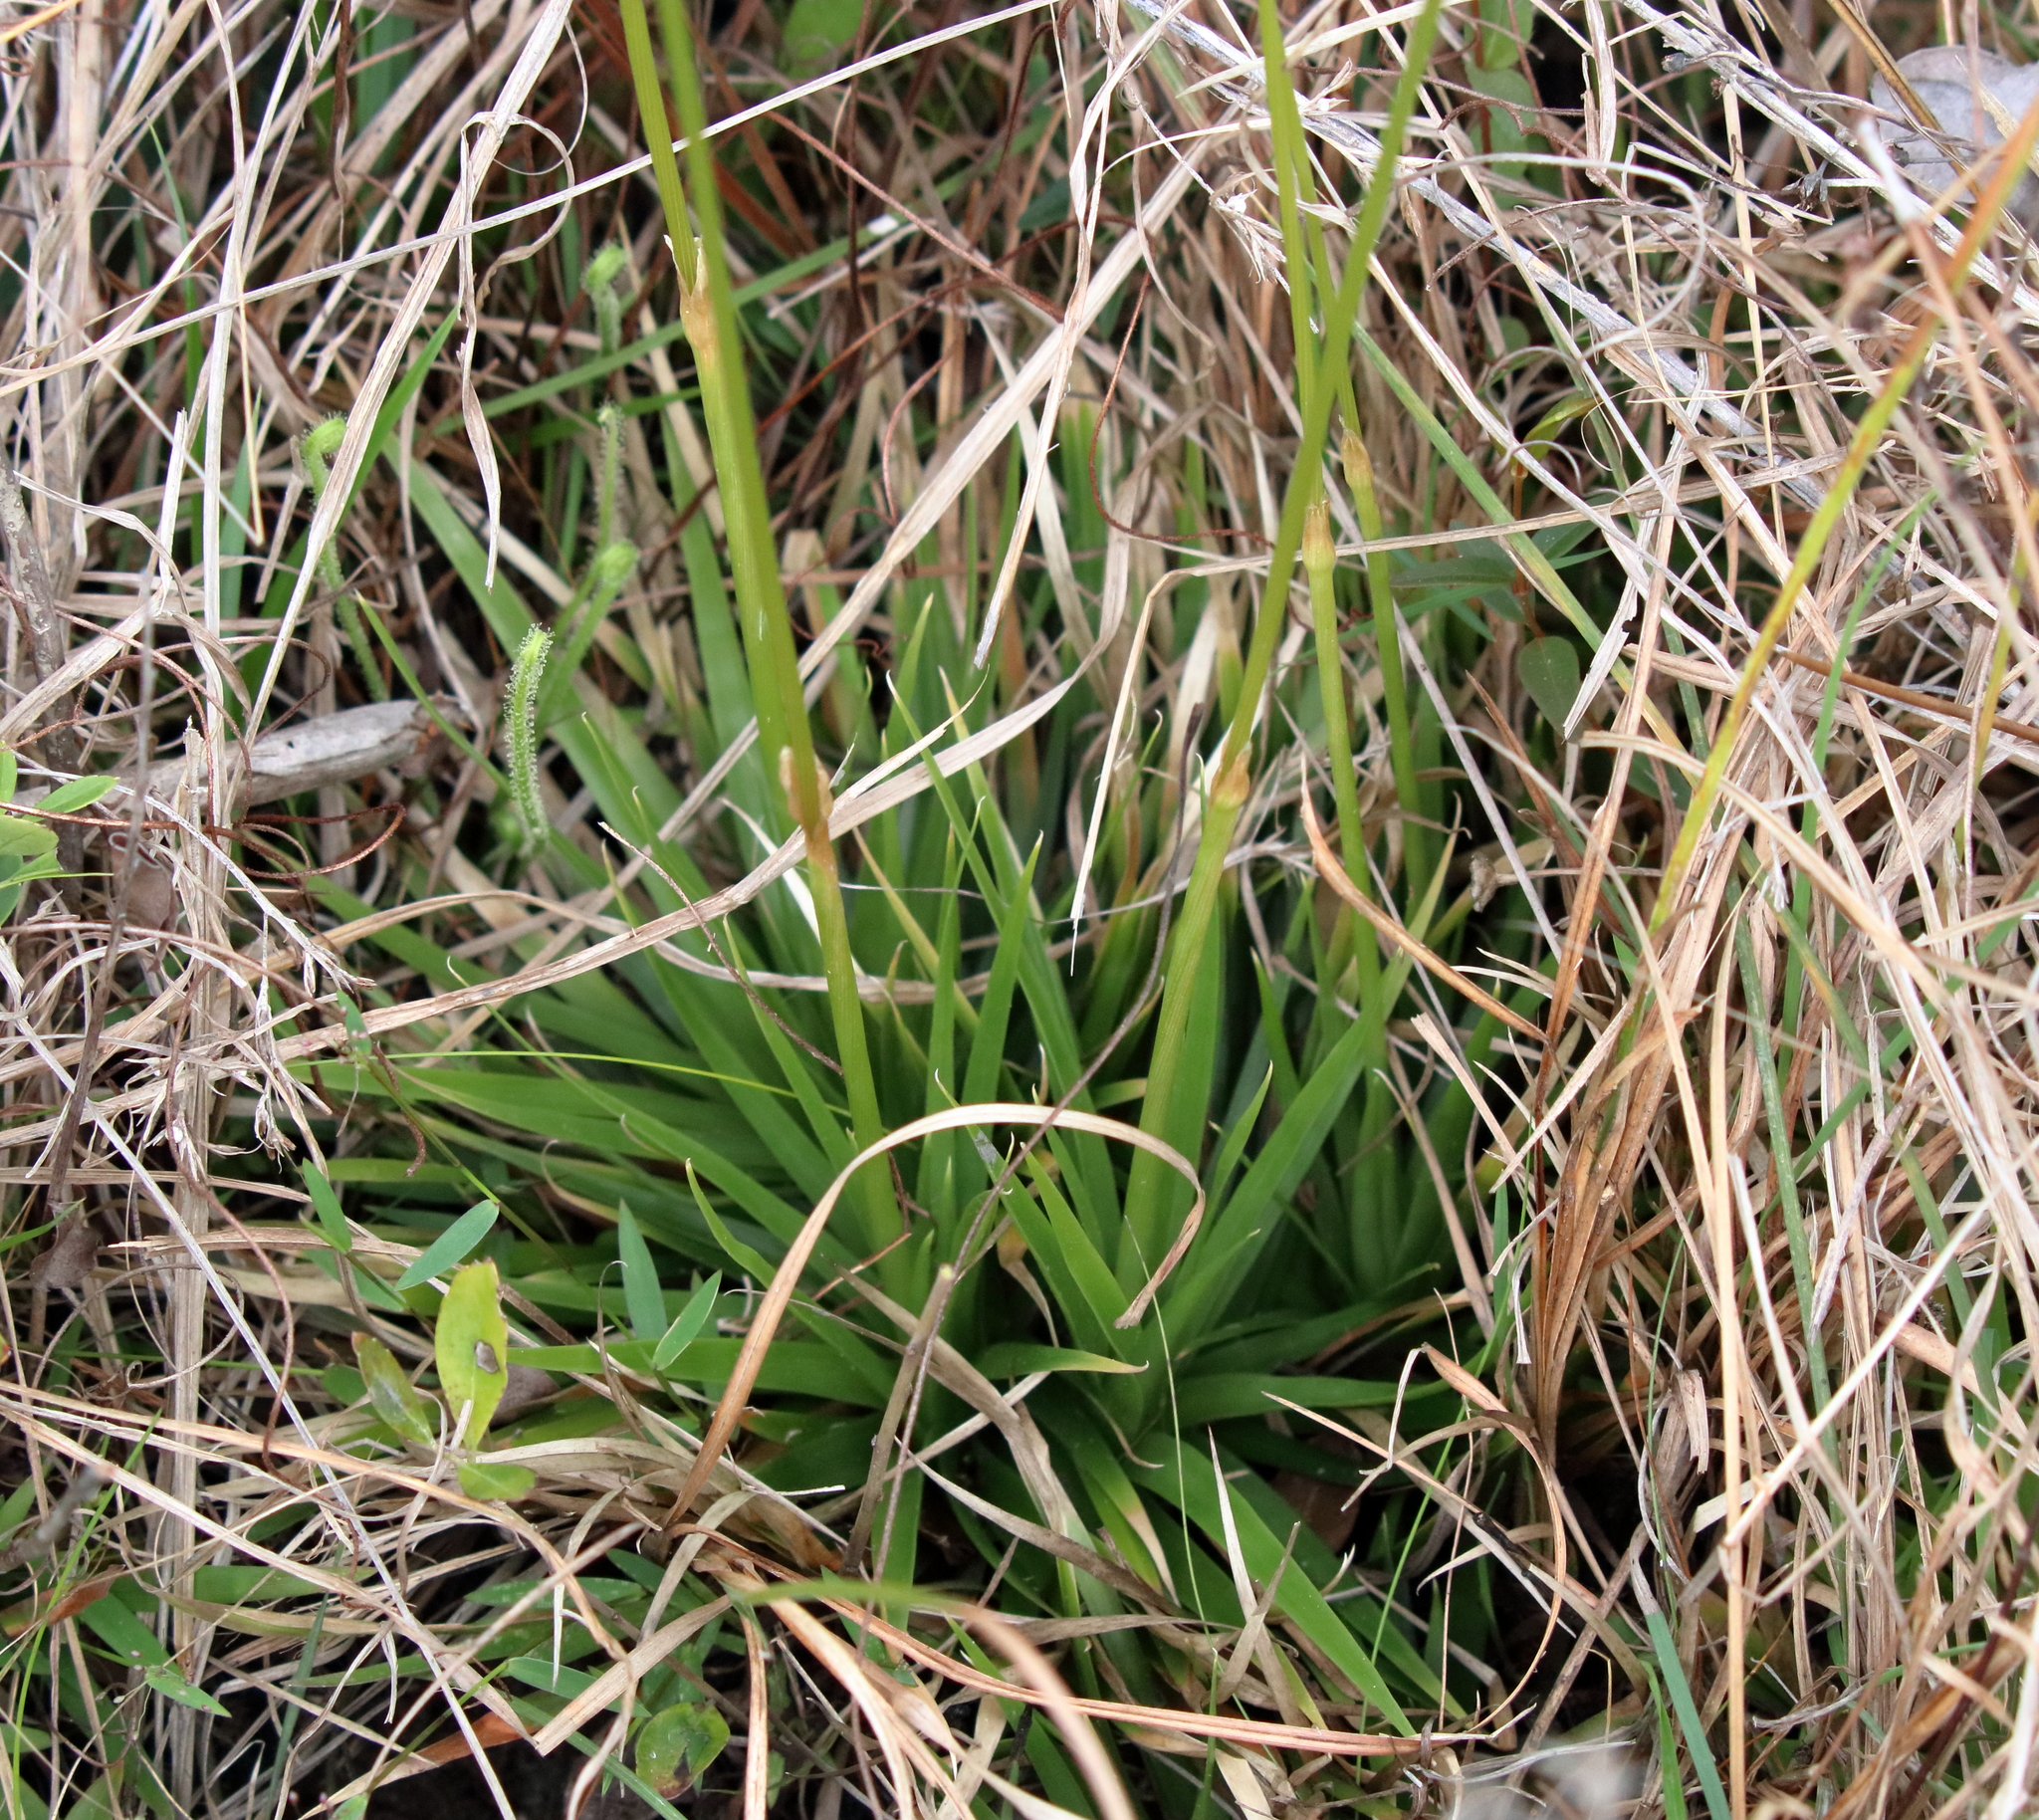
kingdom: Plantae
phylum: Tracheophyta
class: Liliopsida
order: Poales
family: Eriocaulaceae
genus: Eriocaulon
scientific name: Eriocaulon compressum
